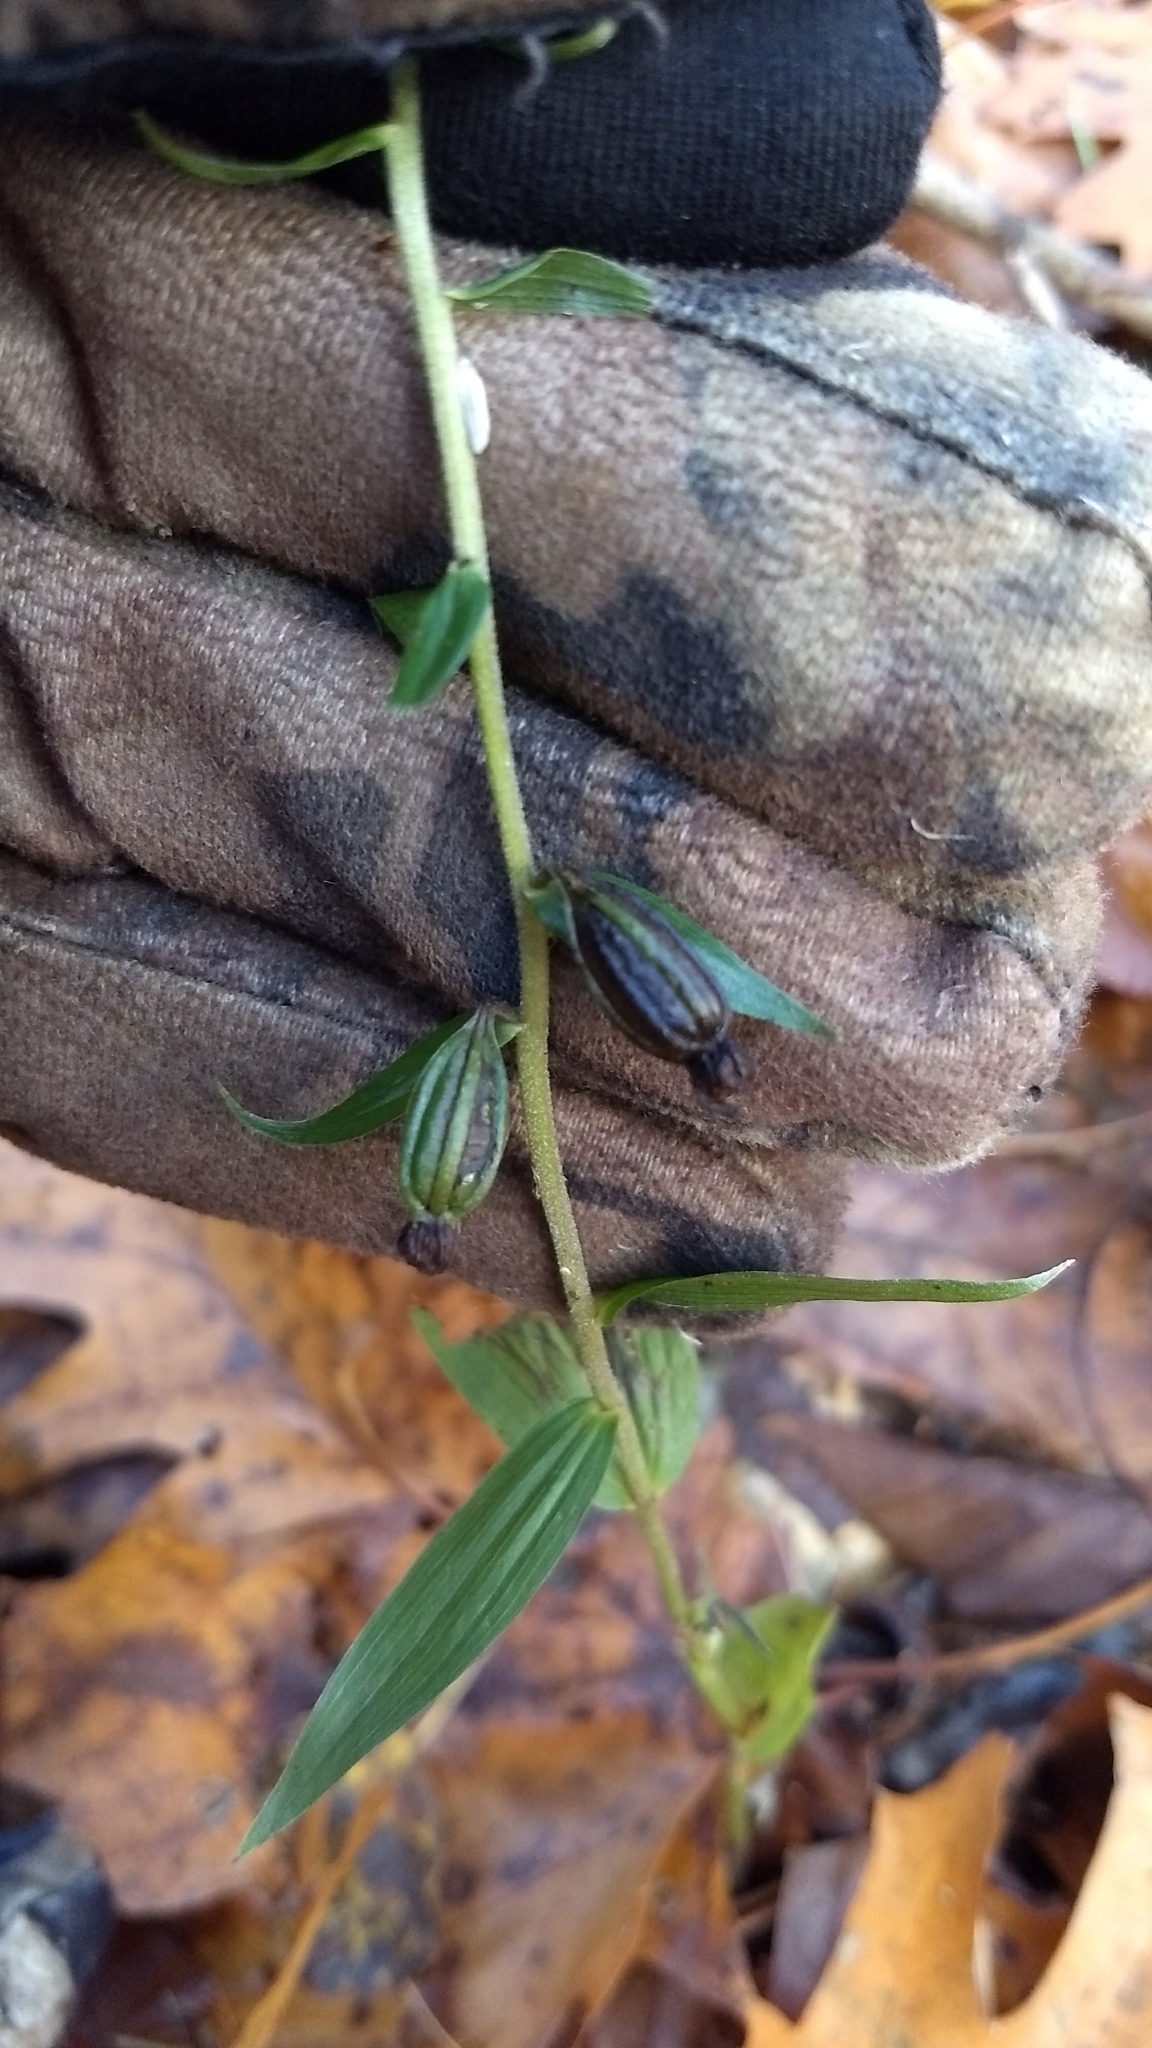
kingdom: Plantae
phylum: Tracheophyta
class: Liliopsida
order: Asparagales
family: Orchidaceae
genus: Epipactis
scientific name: Epipactis helleborine
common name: Broad-leaved helleborine
